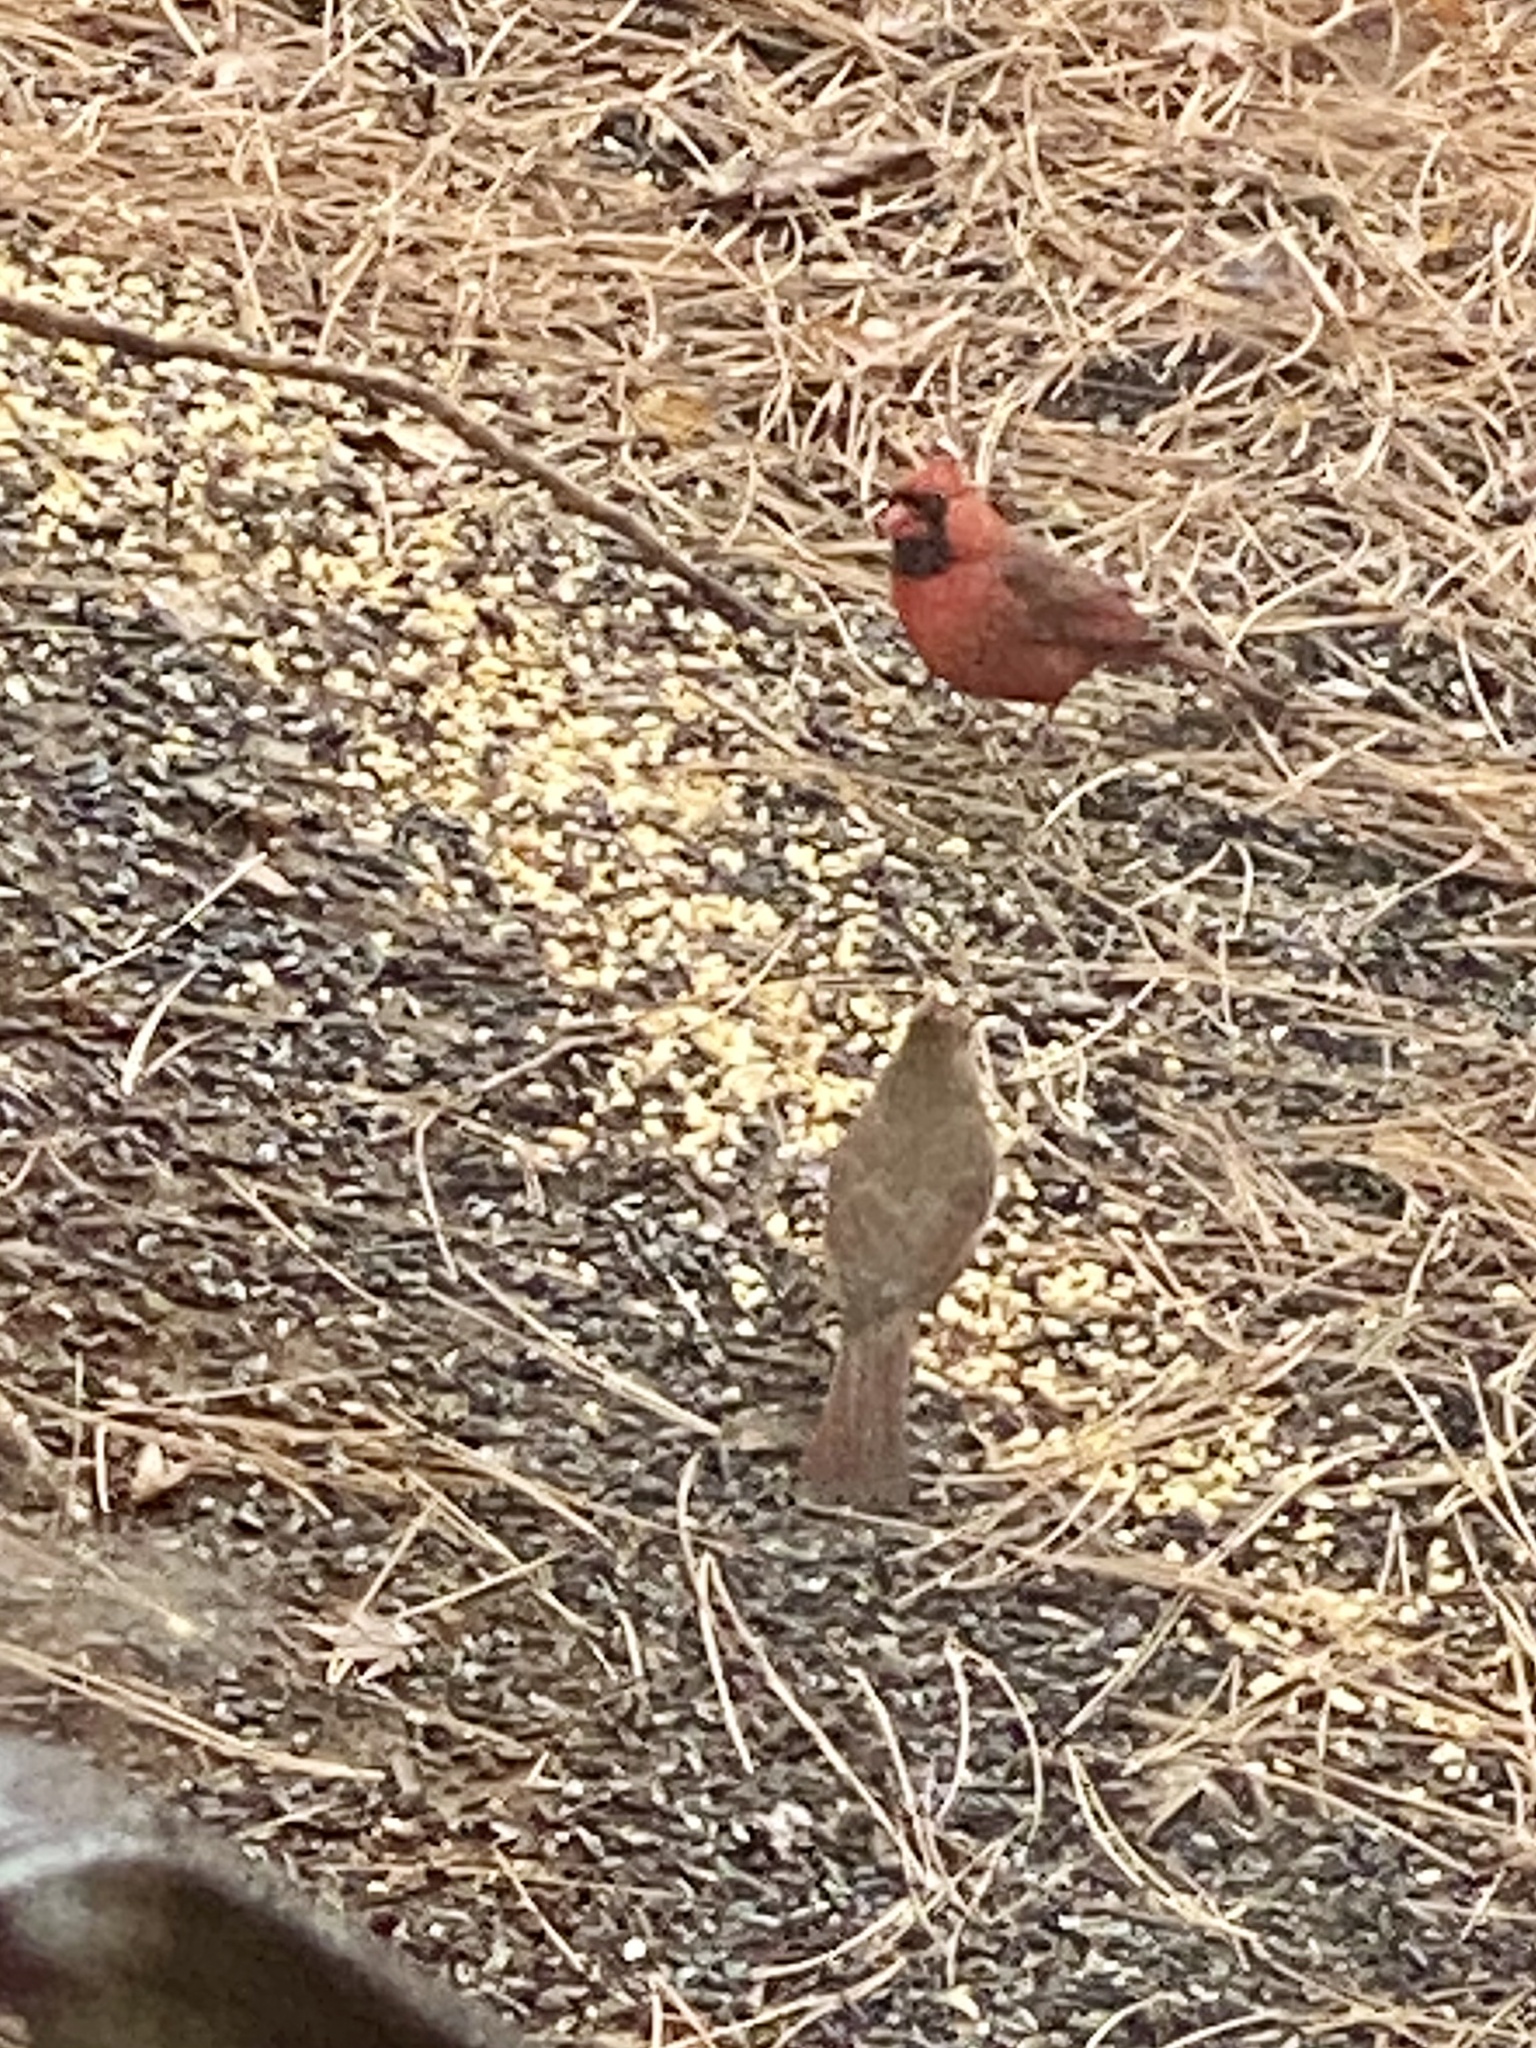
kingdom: Animalia
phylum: Chordata
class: Aves
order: Passeriformes
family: Cardinalidae
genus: Cardinalis
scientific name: Cardinalis cardinalis
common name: Northern cardinal
